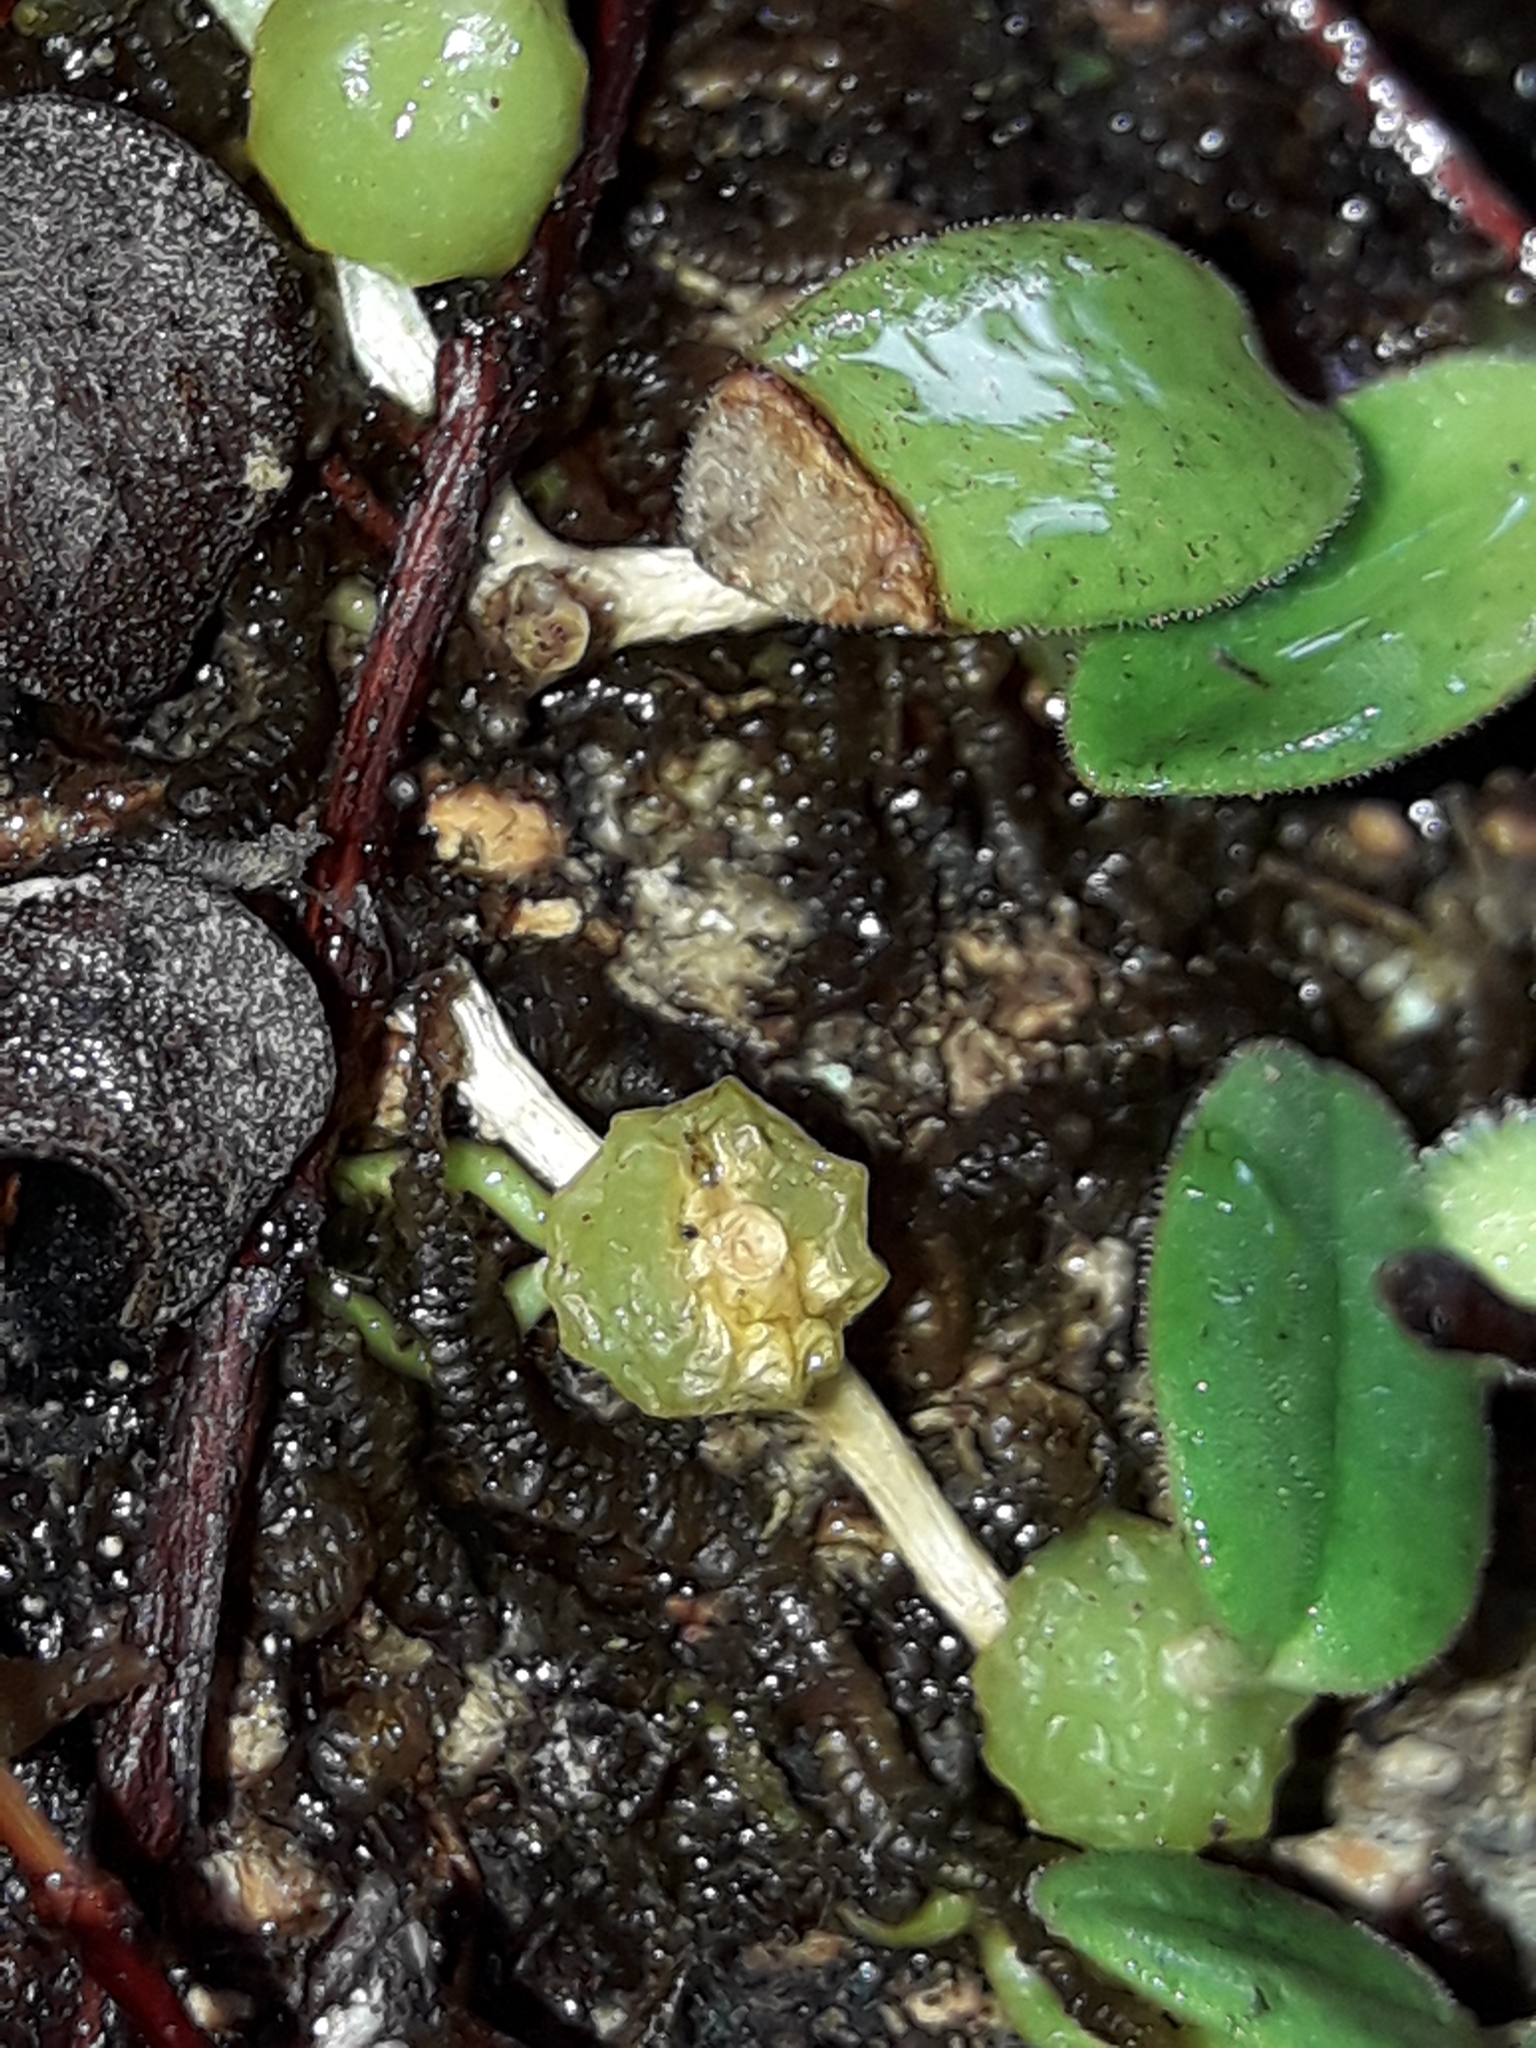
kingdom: Plantae
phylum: Tracheophyta
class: Liliopsida
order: Asparagales
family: Orchidaceae
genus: Bulbophyllum
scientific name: Bulbophyllum pygmaeum
